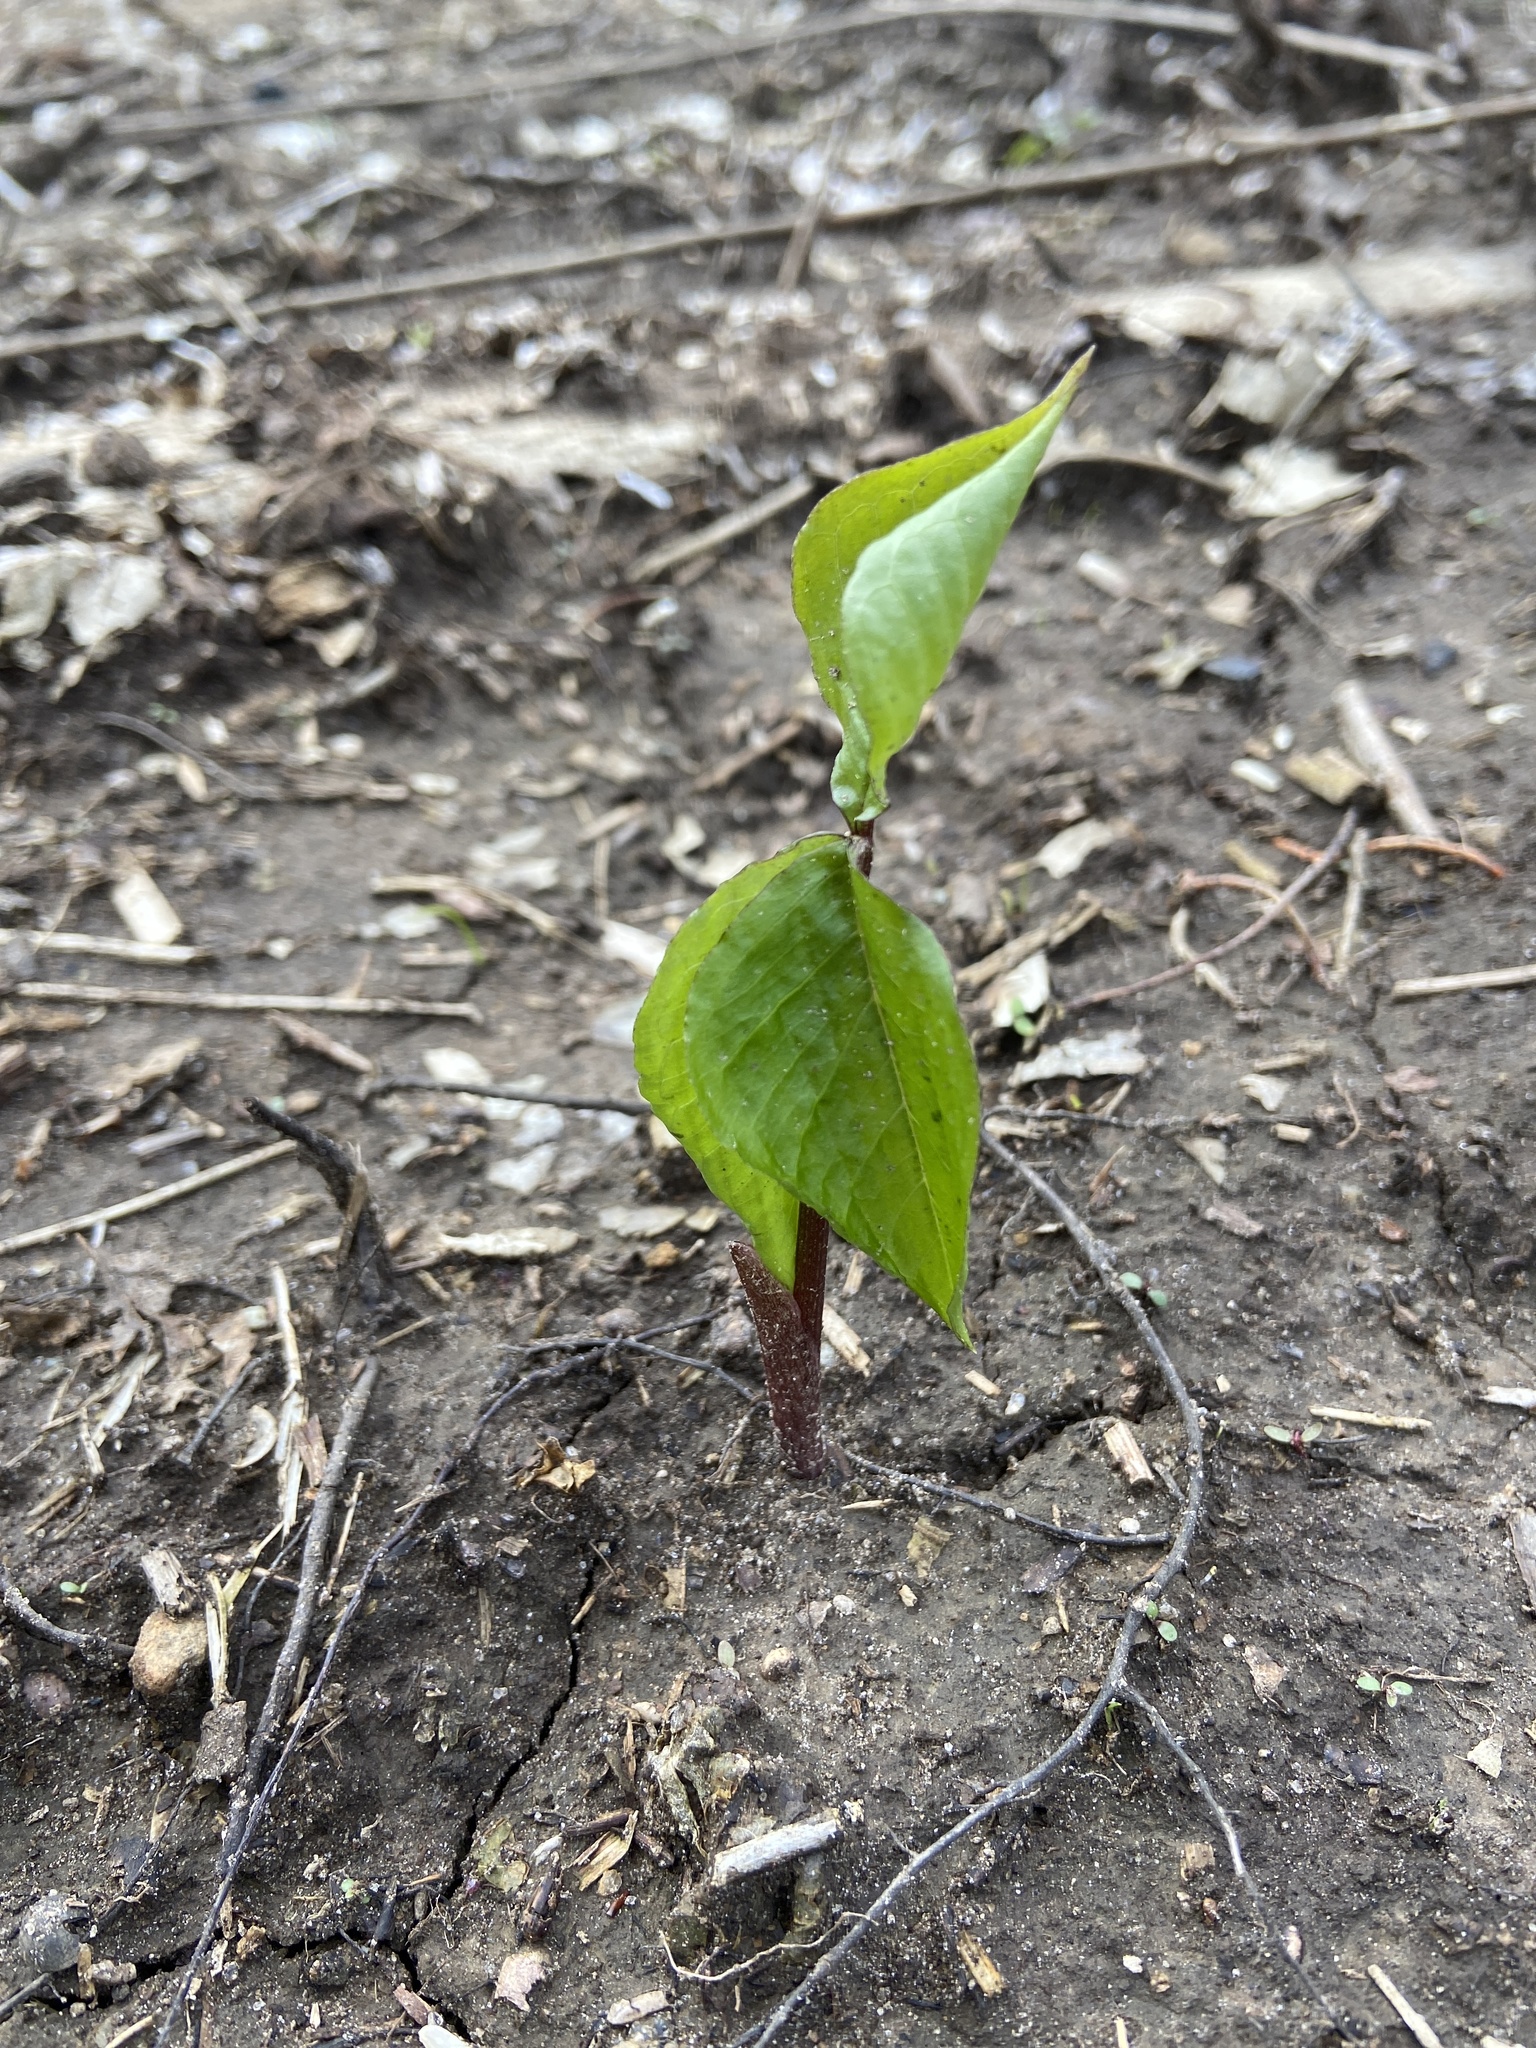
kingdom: Plantae
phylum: Tracheophyta
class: Liliopsida
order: Alismatales
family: Araceae
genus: Arisaema
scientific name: Arisaema triphyllum
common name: Jack-in-the-pulpit
